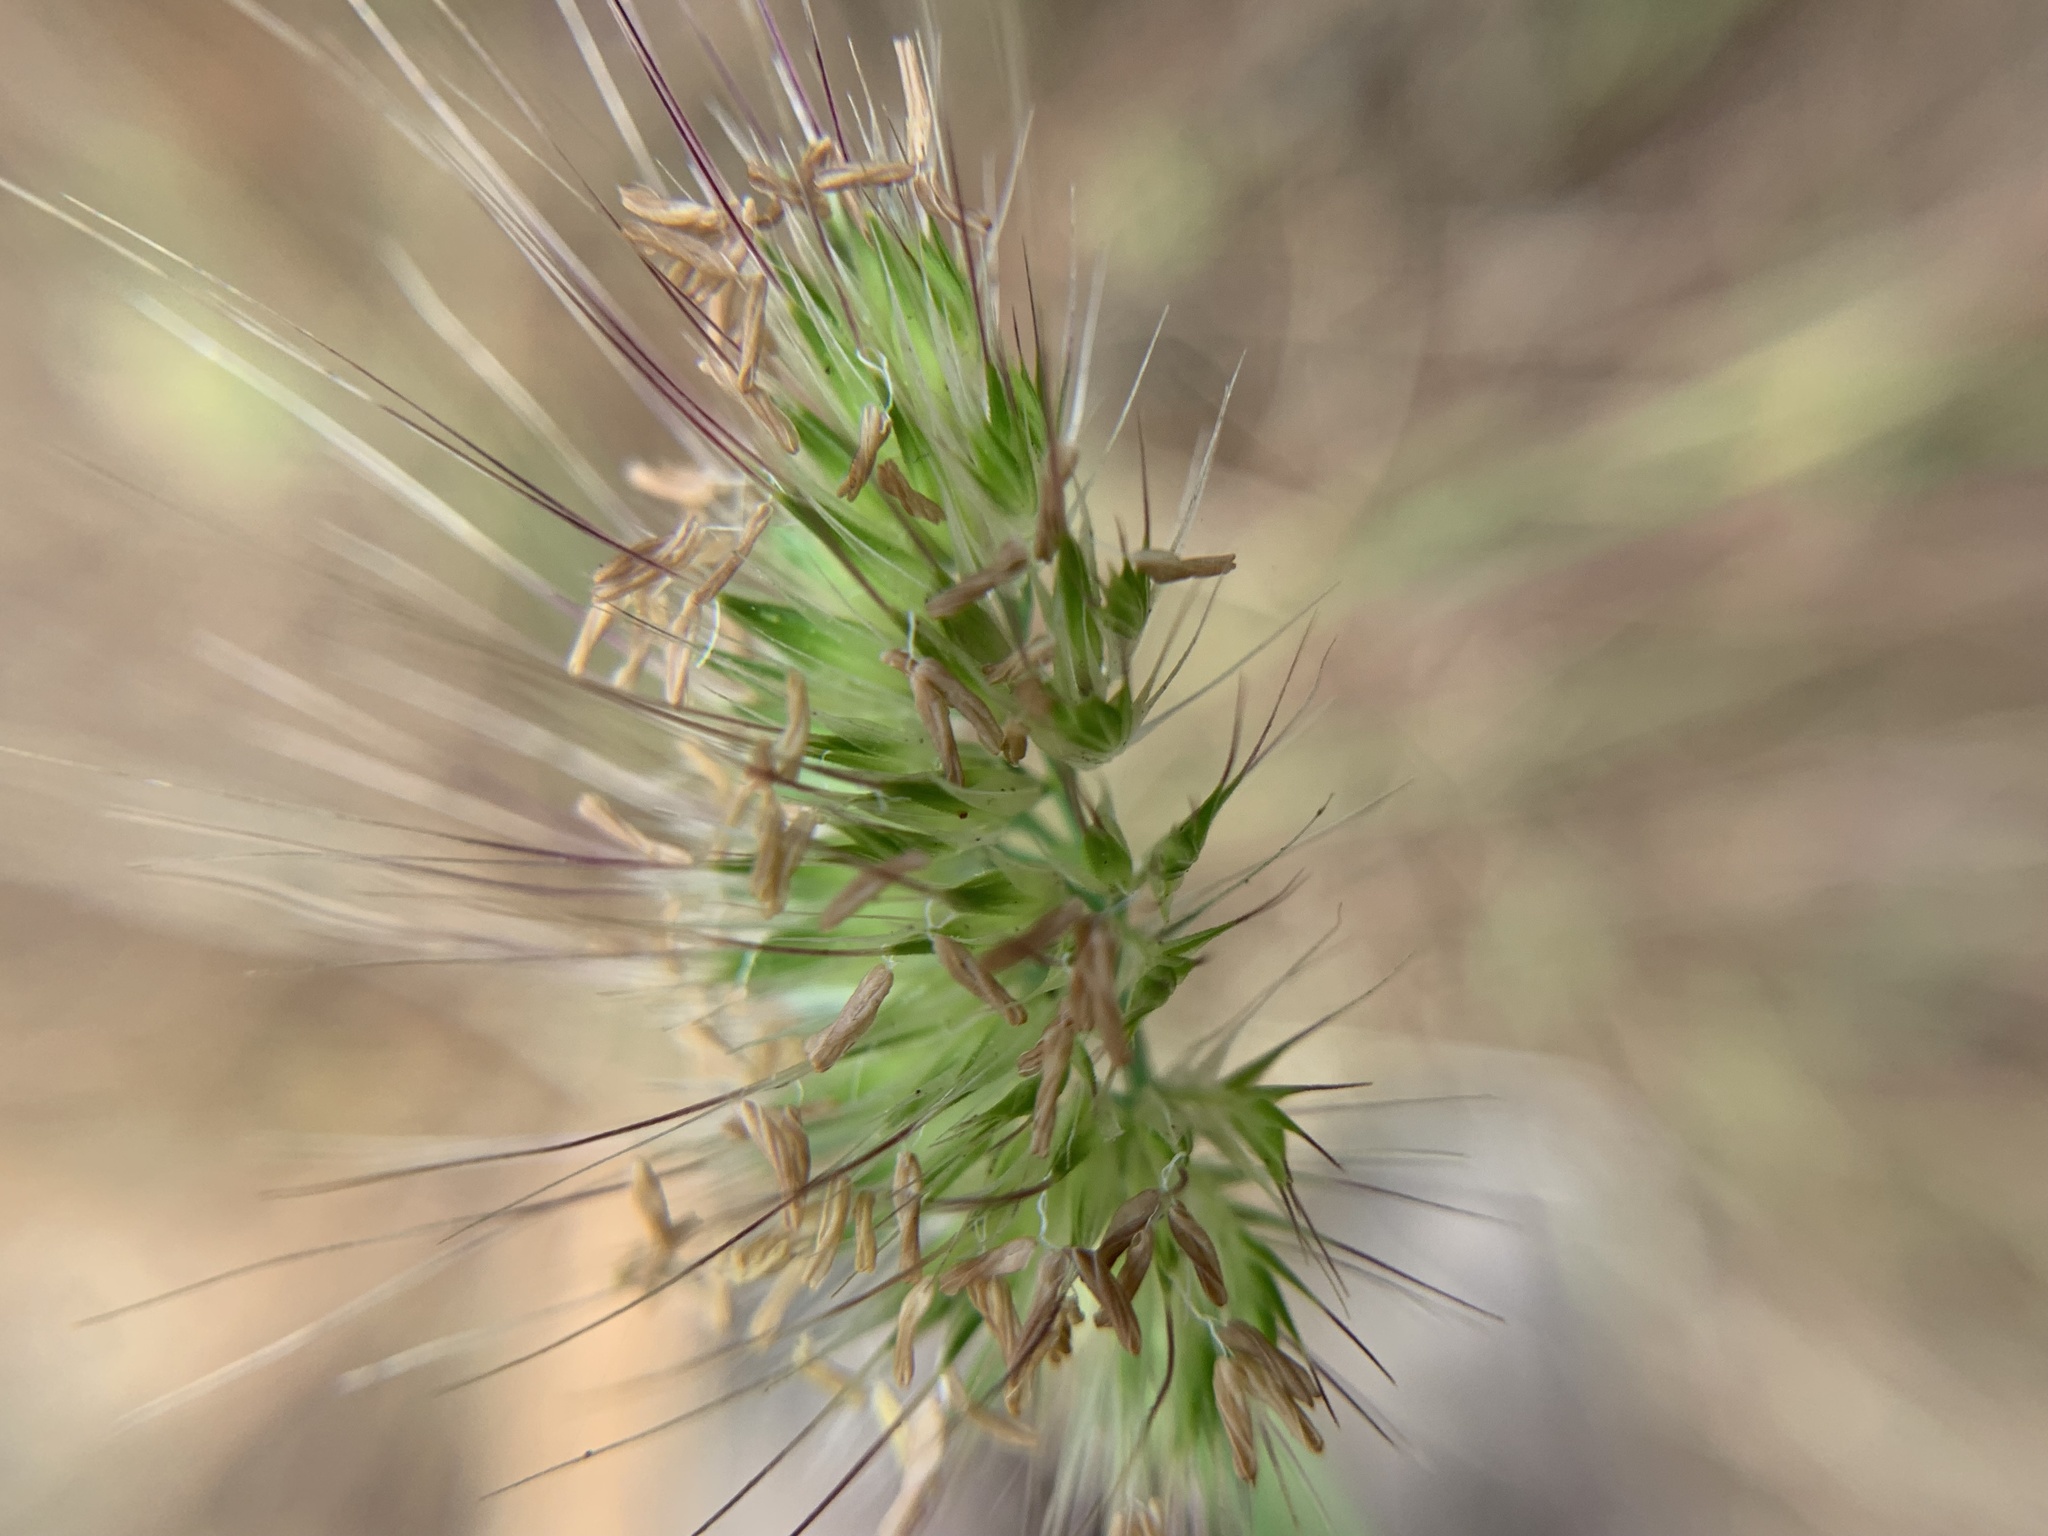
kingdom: Plantae
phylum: Tracheophyta
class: Liliopsida
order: Poales
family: Poaceae
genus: Cynosurus
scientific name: Cynosurus echinatus
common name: Rough dog's-tail
